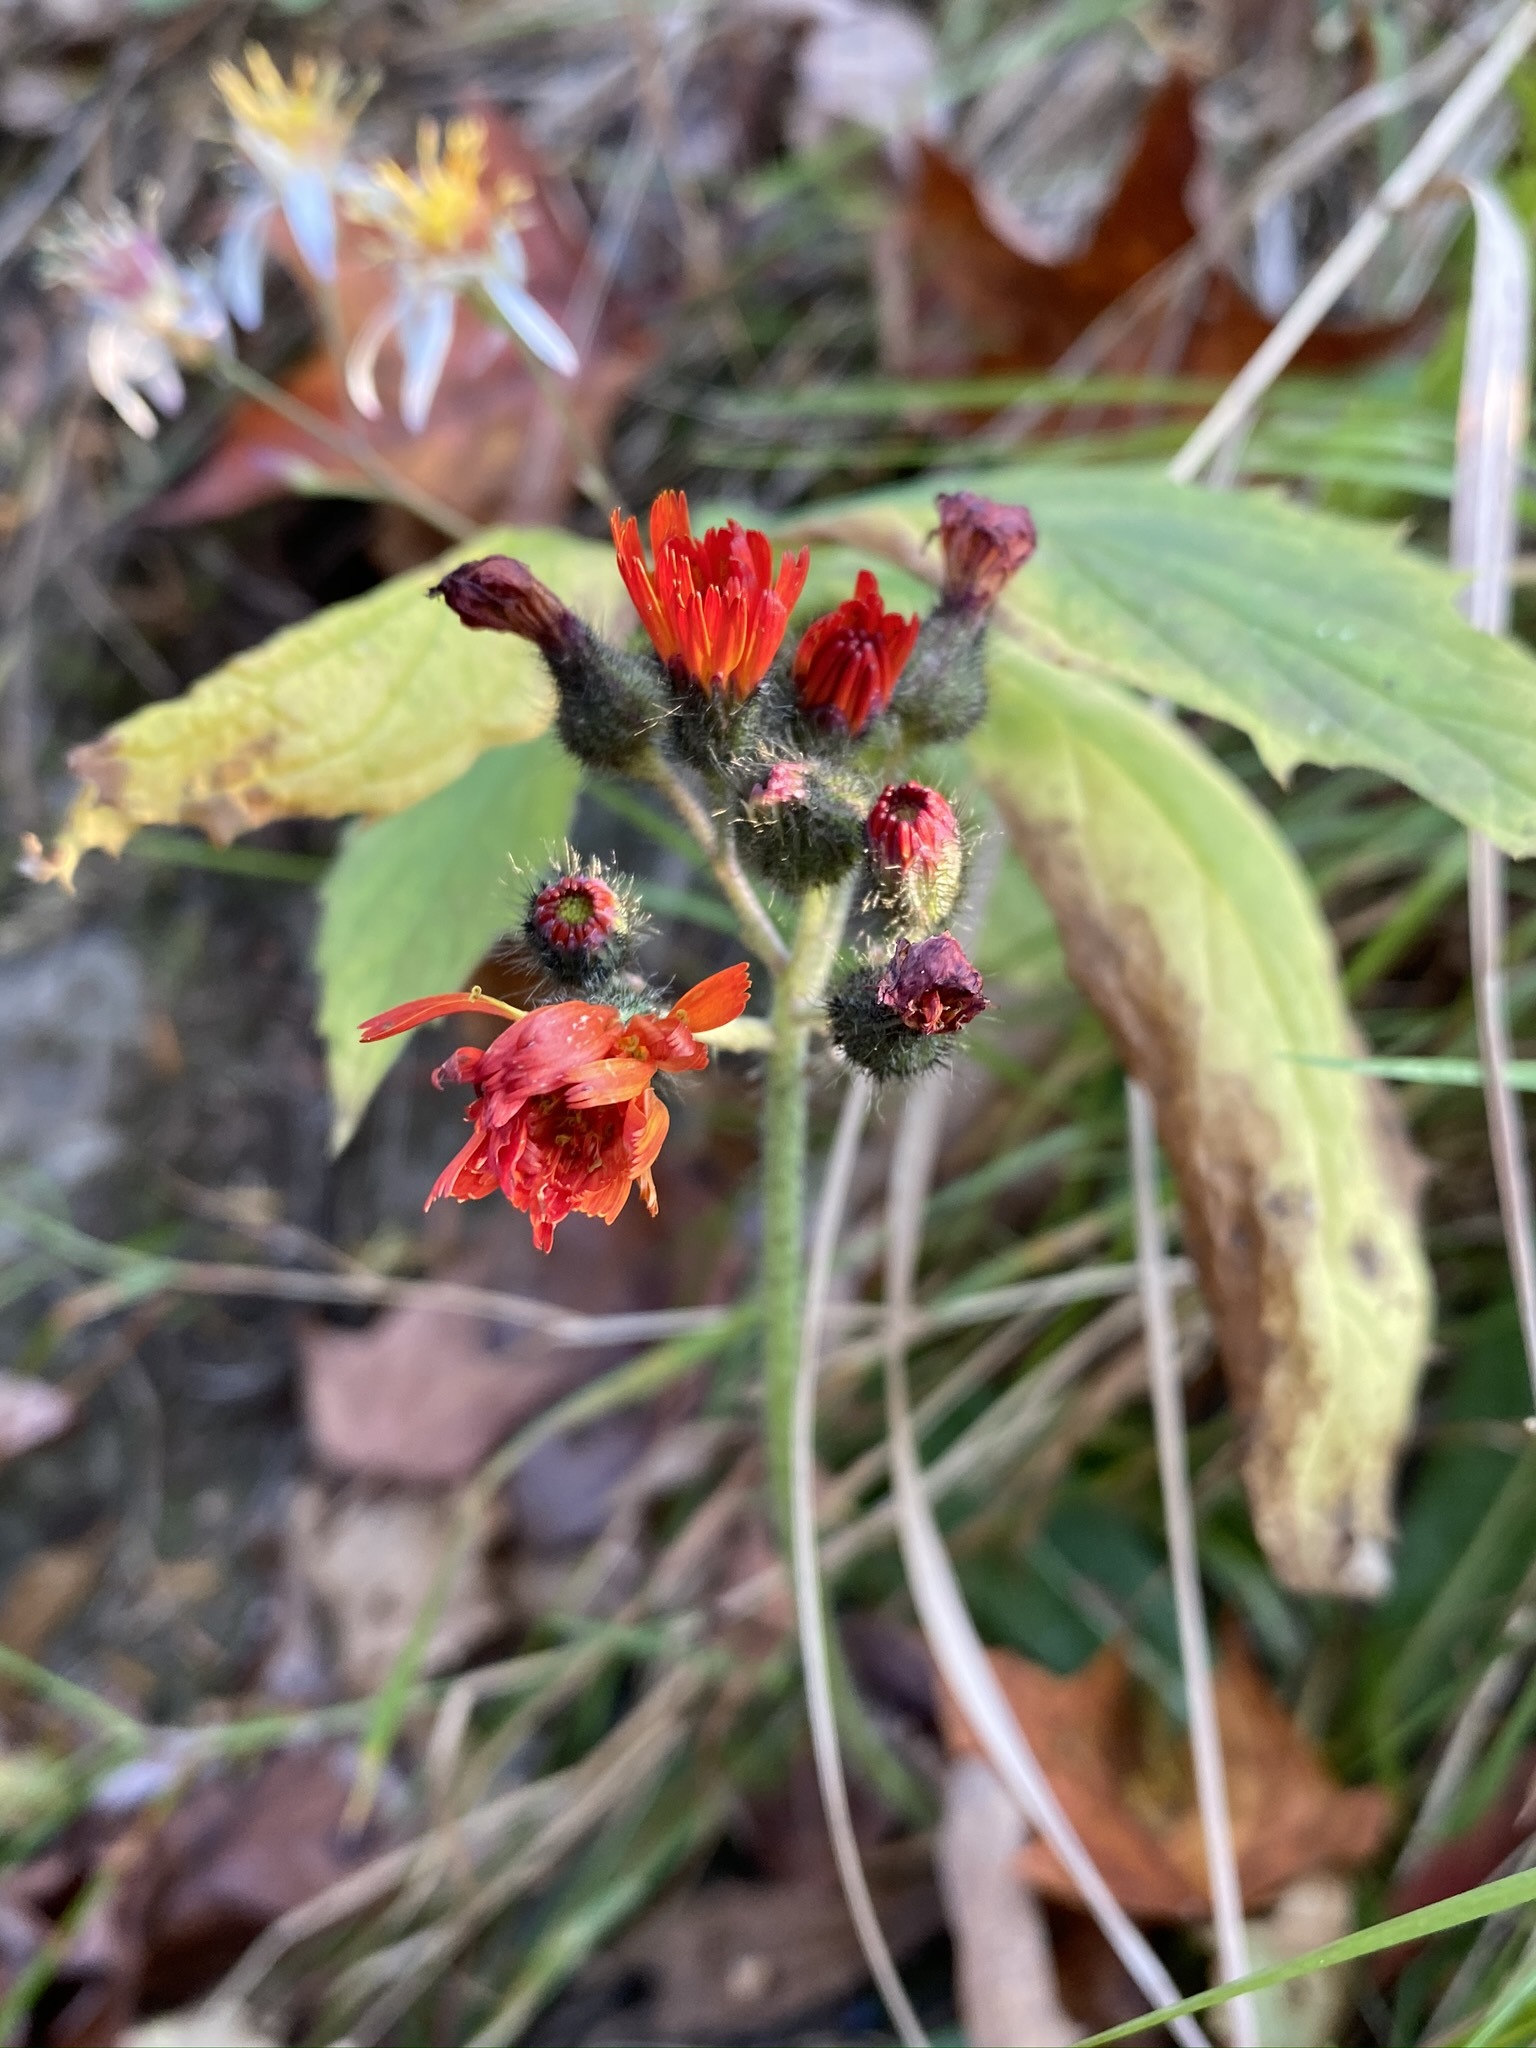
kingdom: Plantae
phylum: Tracheophyta
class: Magnoliopsida
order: Asterales
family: Asteraceae
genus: Pilosella
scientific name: Pilosella aurantiaca
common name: Fox-and-cubs
